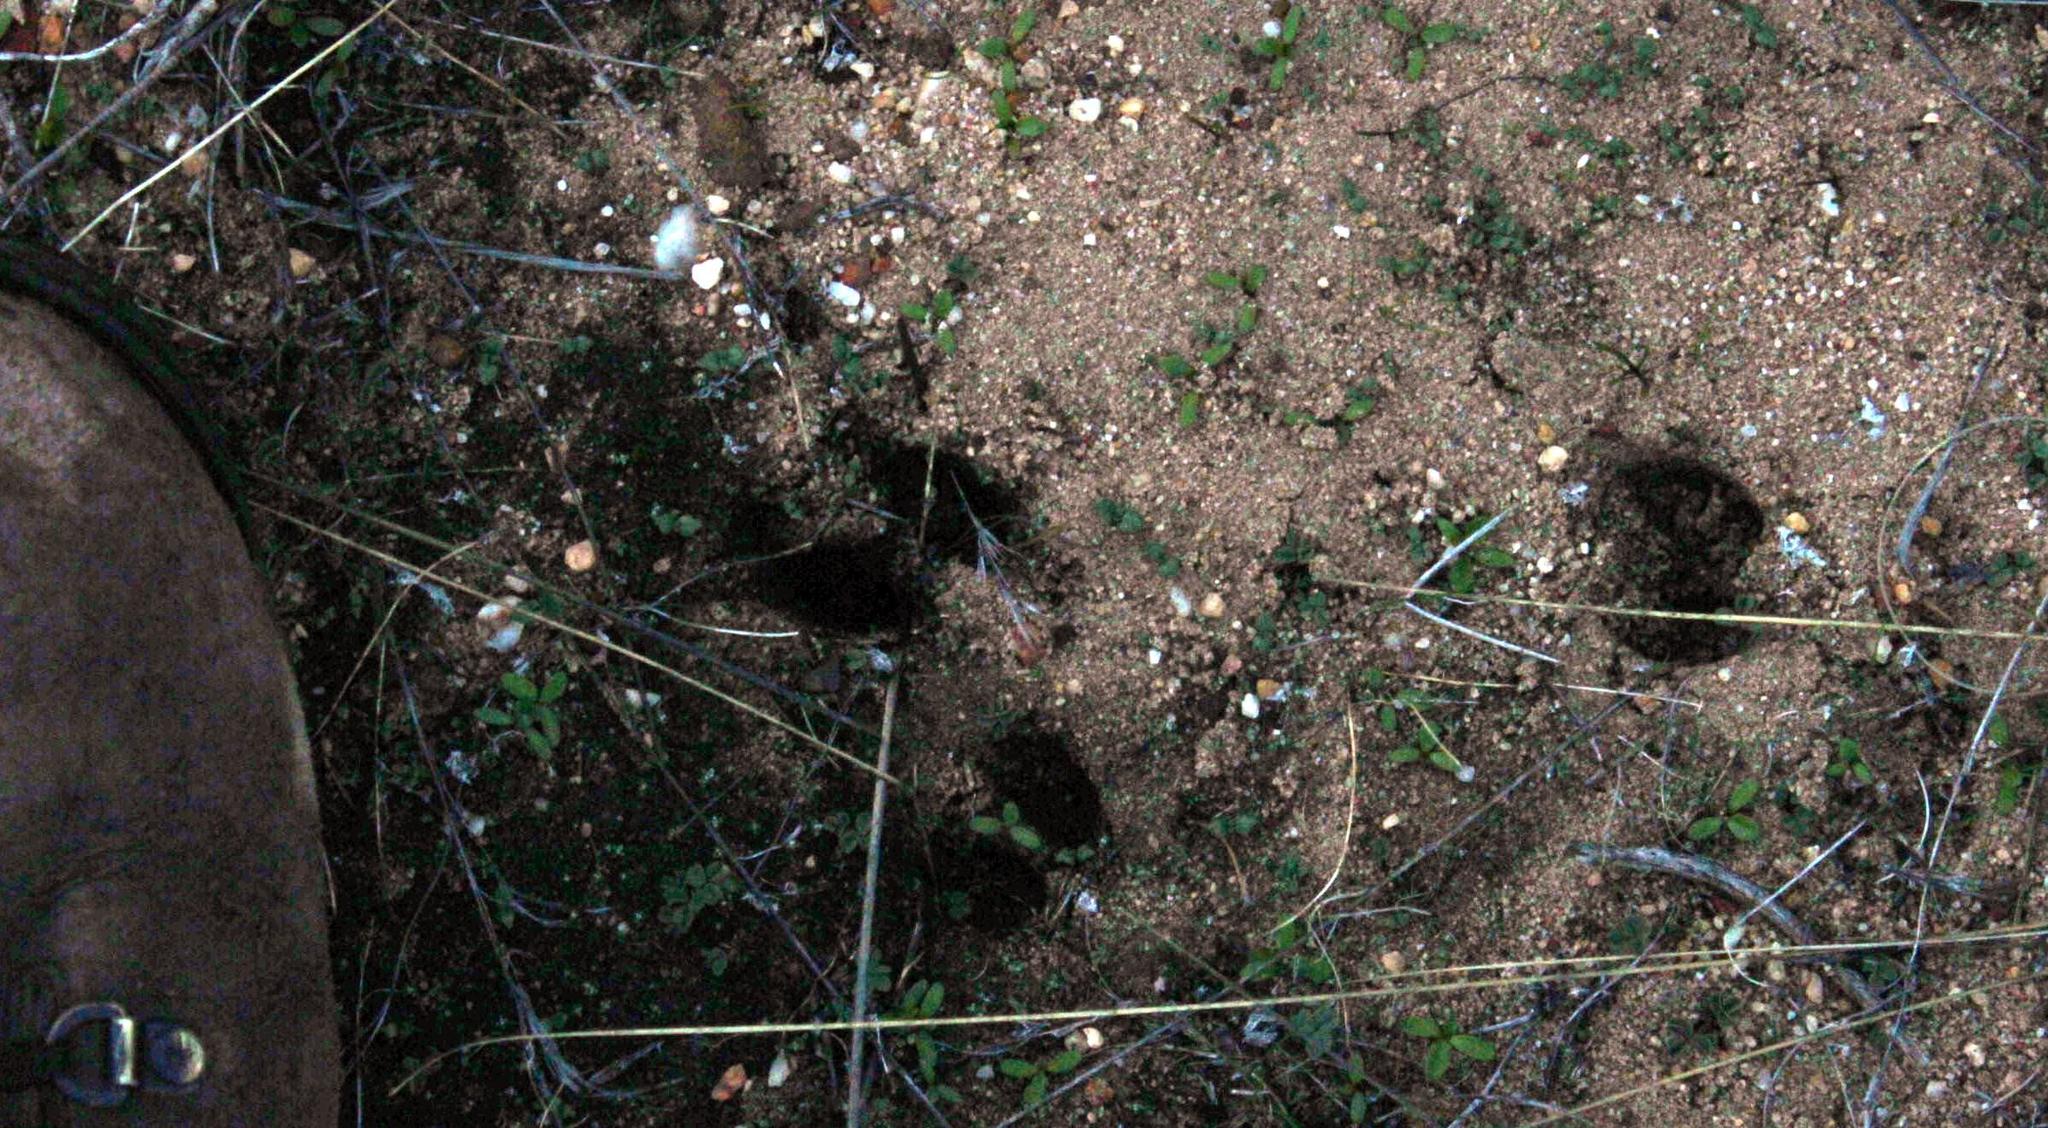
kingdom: Animalia
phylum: Chordata
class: Mammalia
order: Artiodactyla
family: Bovidae
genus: Oreotragus
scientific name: Oreotragus oreotragus
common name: Klipspringer
